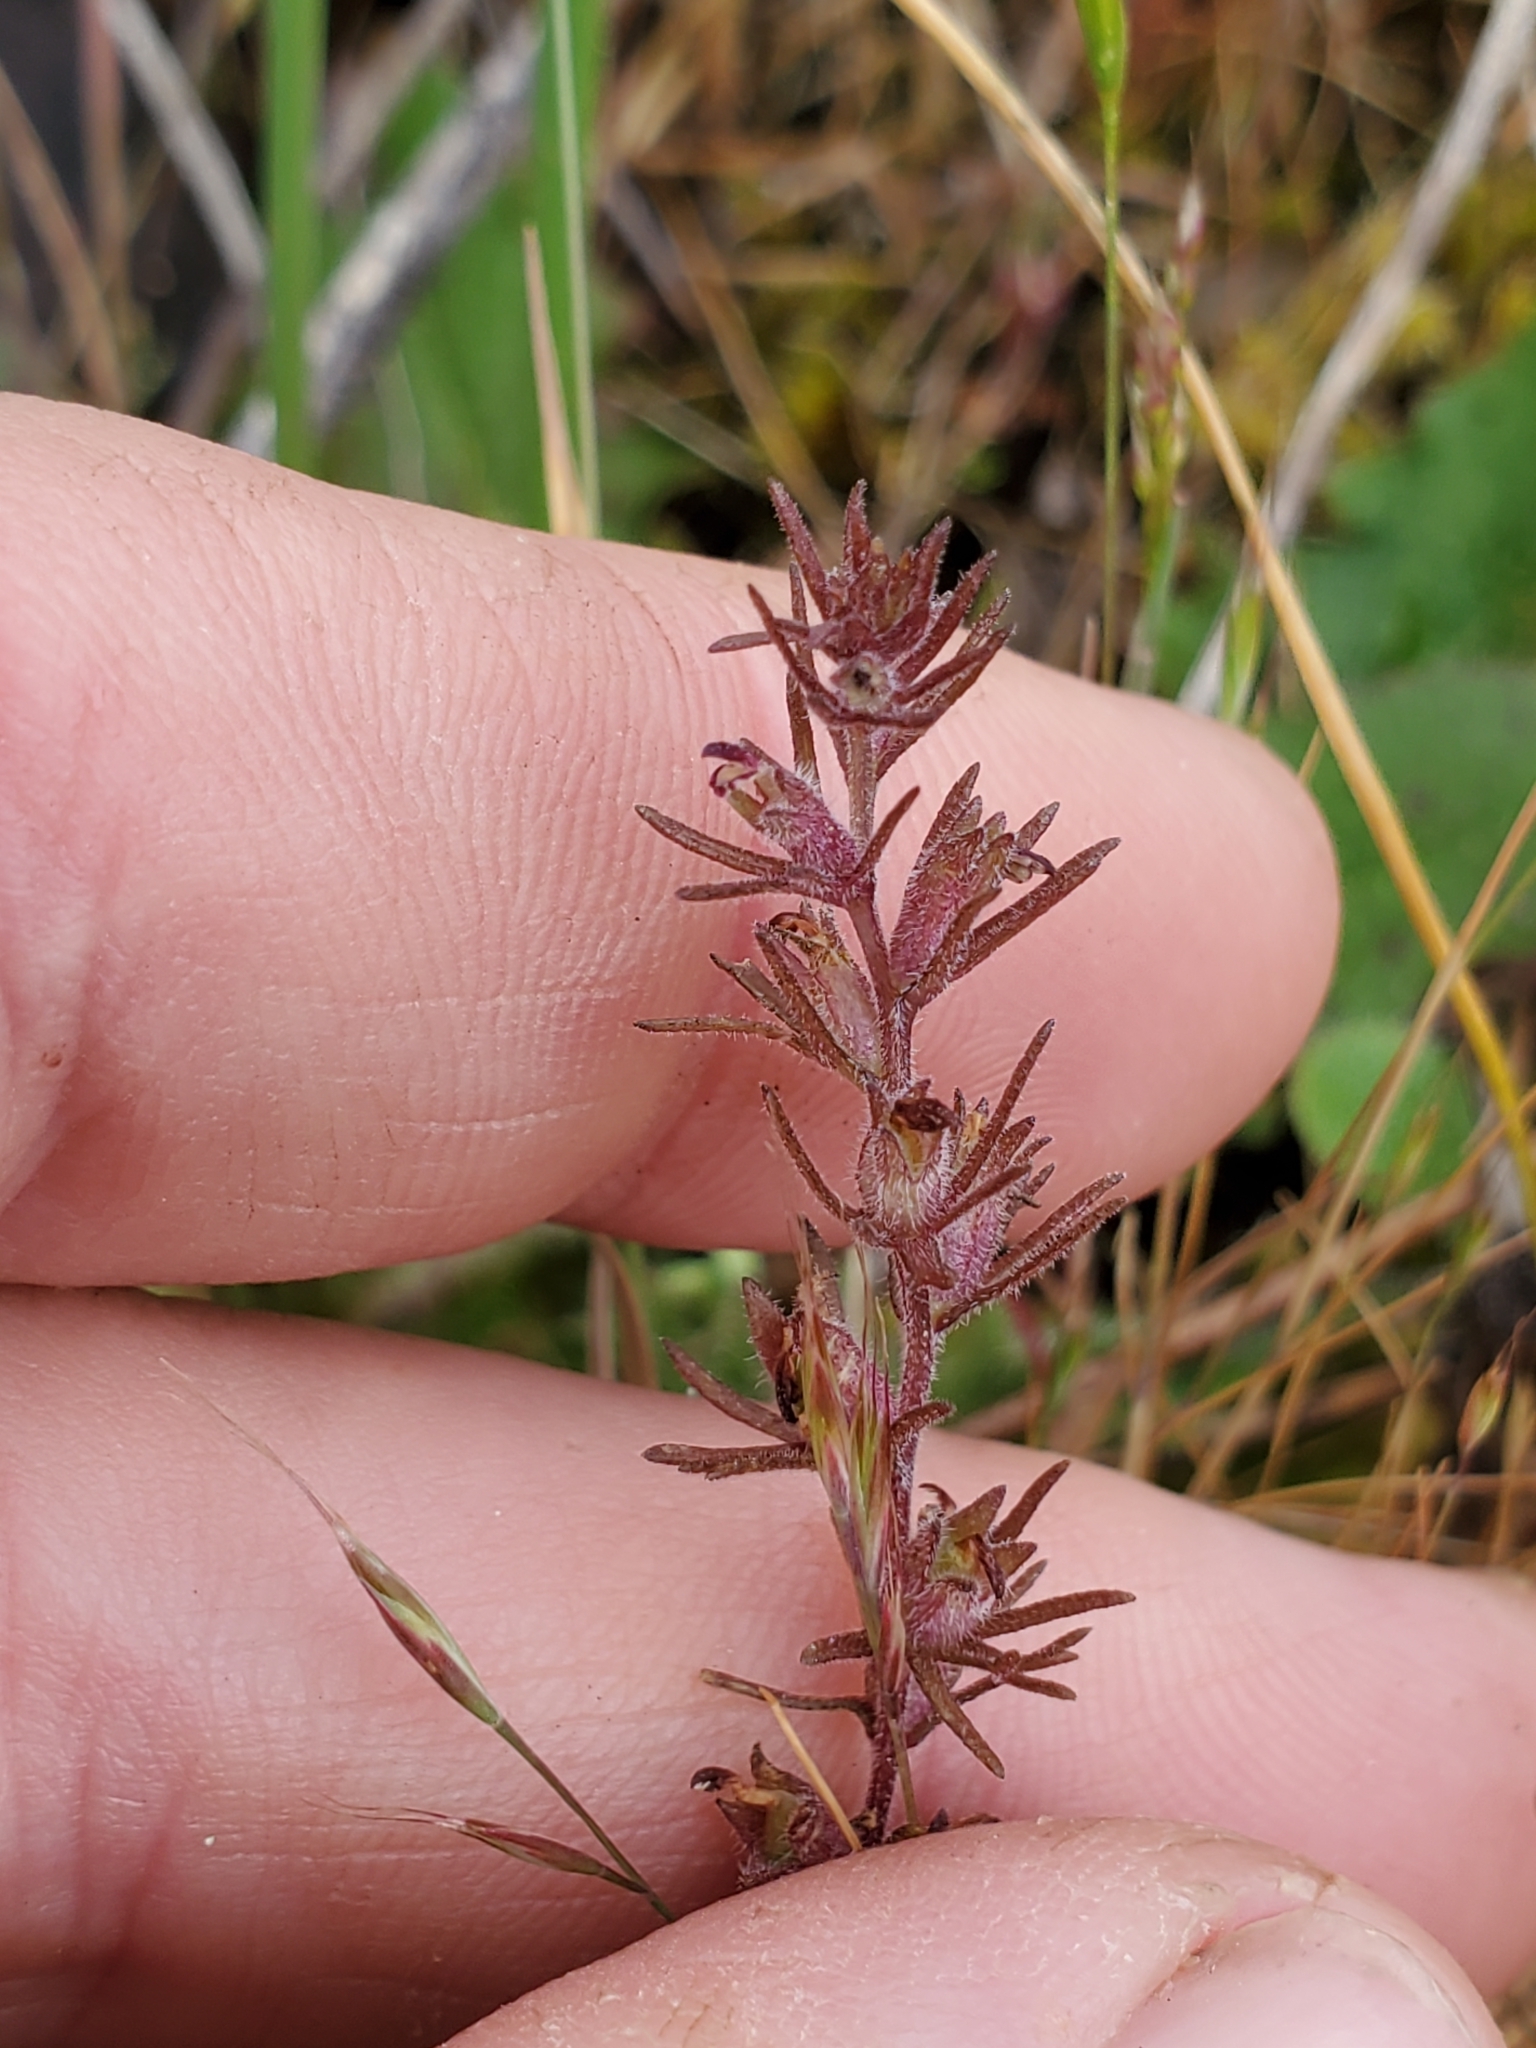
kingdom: Plantae
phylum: Tracheophyta
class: Magnoliopsida
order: Lamiales
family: Orobanchaceae
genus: Triphysaria
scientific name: Triphysaria pusilla
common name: Dwarf false owl-clover
